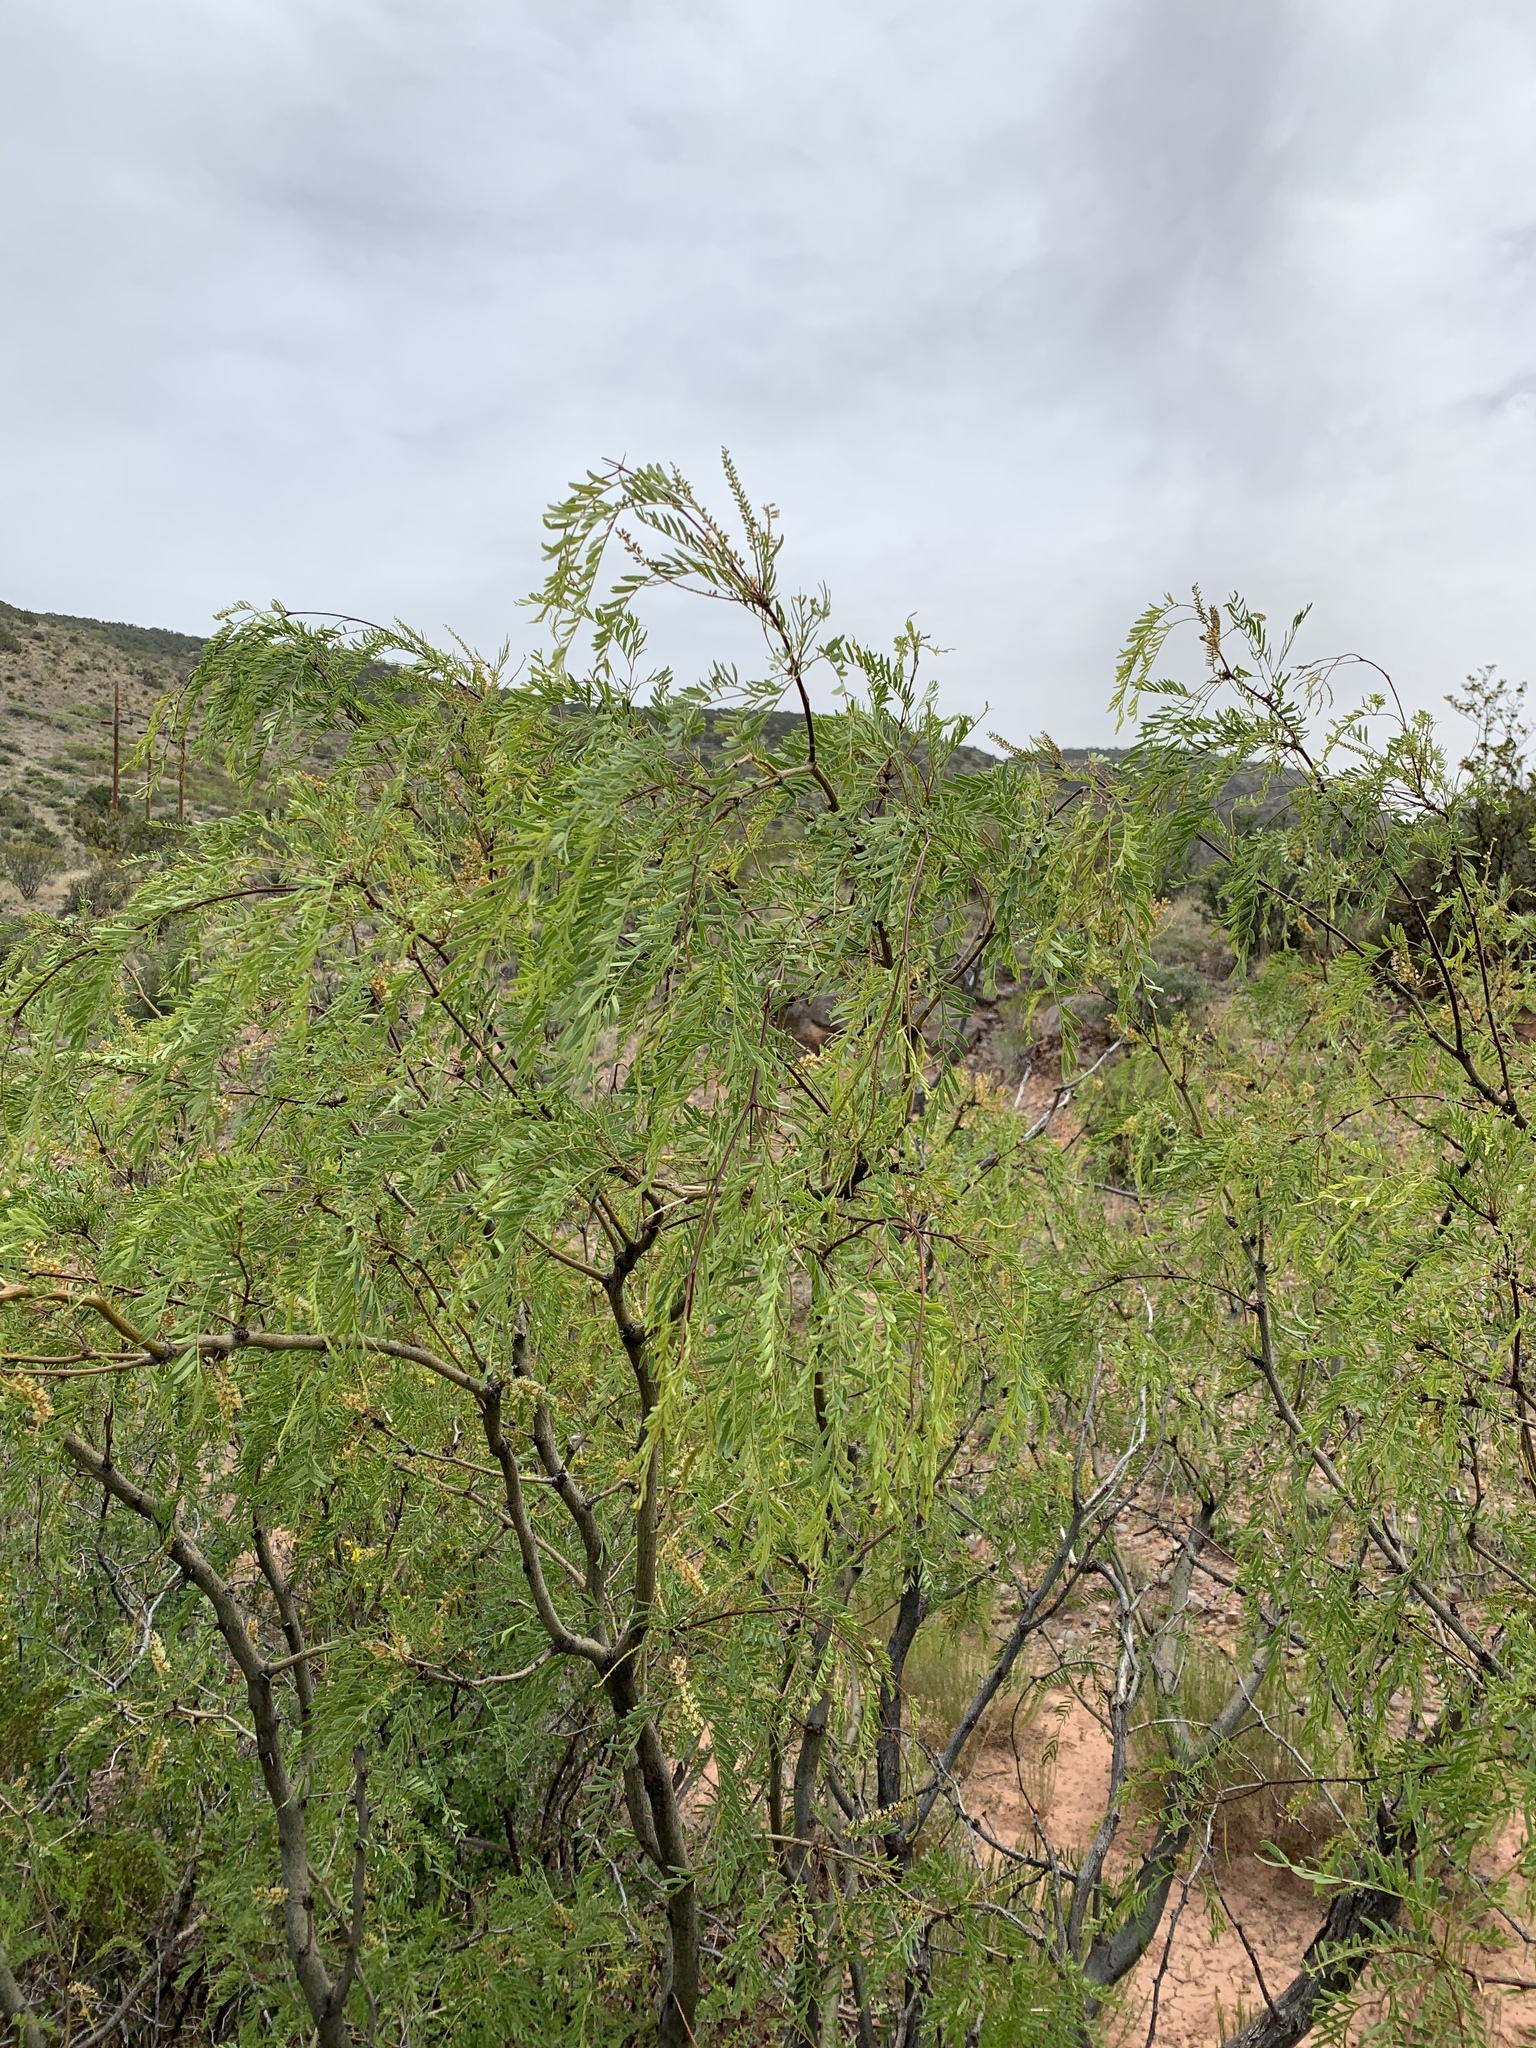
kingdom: Plantae
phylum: Tracheophyta
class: Magnoliopsida
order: Fabales
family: Fabaceae
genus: Prosopis
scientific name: Prosopis glandulosa
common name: Honey mesquite
